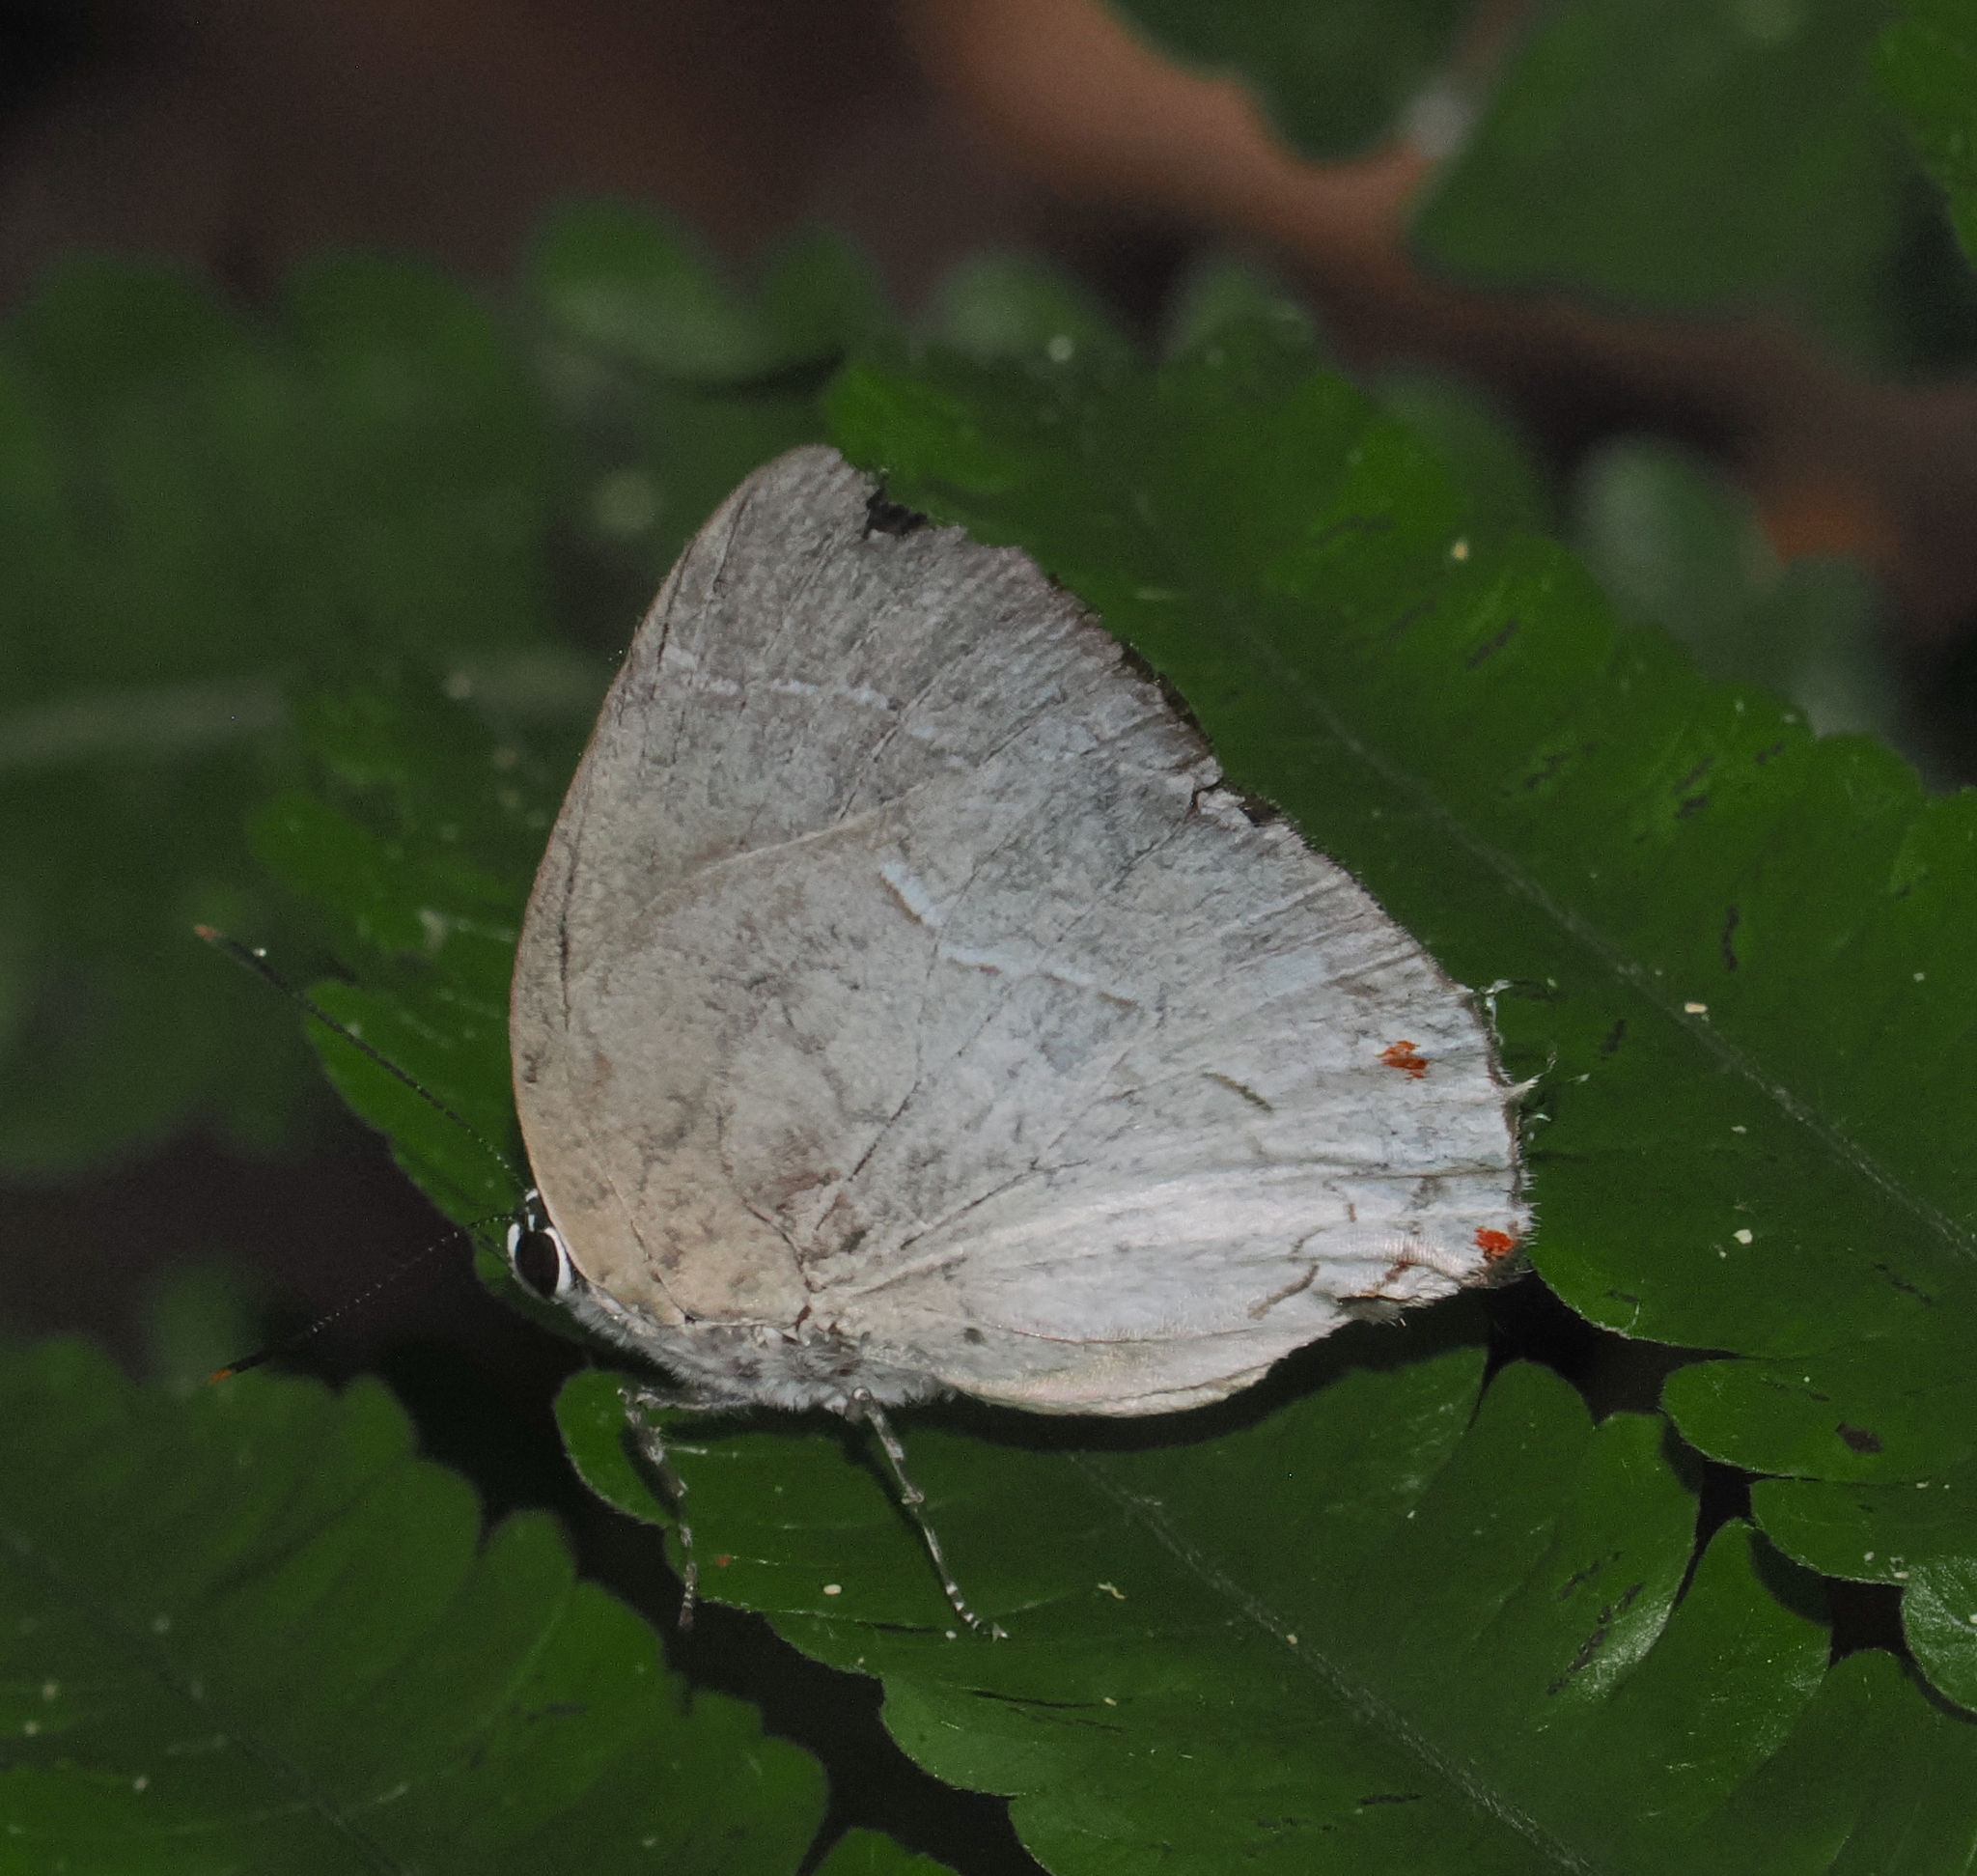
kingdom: Animalia
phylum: Arthropoda
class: Insecta
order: Lepidoptera
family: Lycaenidae
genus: Thecla
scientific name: Thecla ambrax
